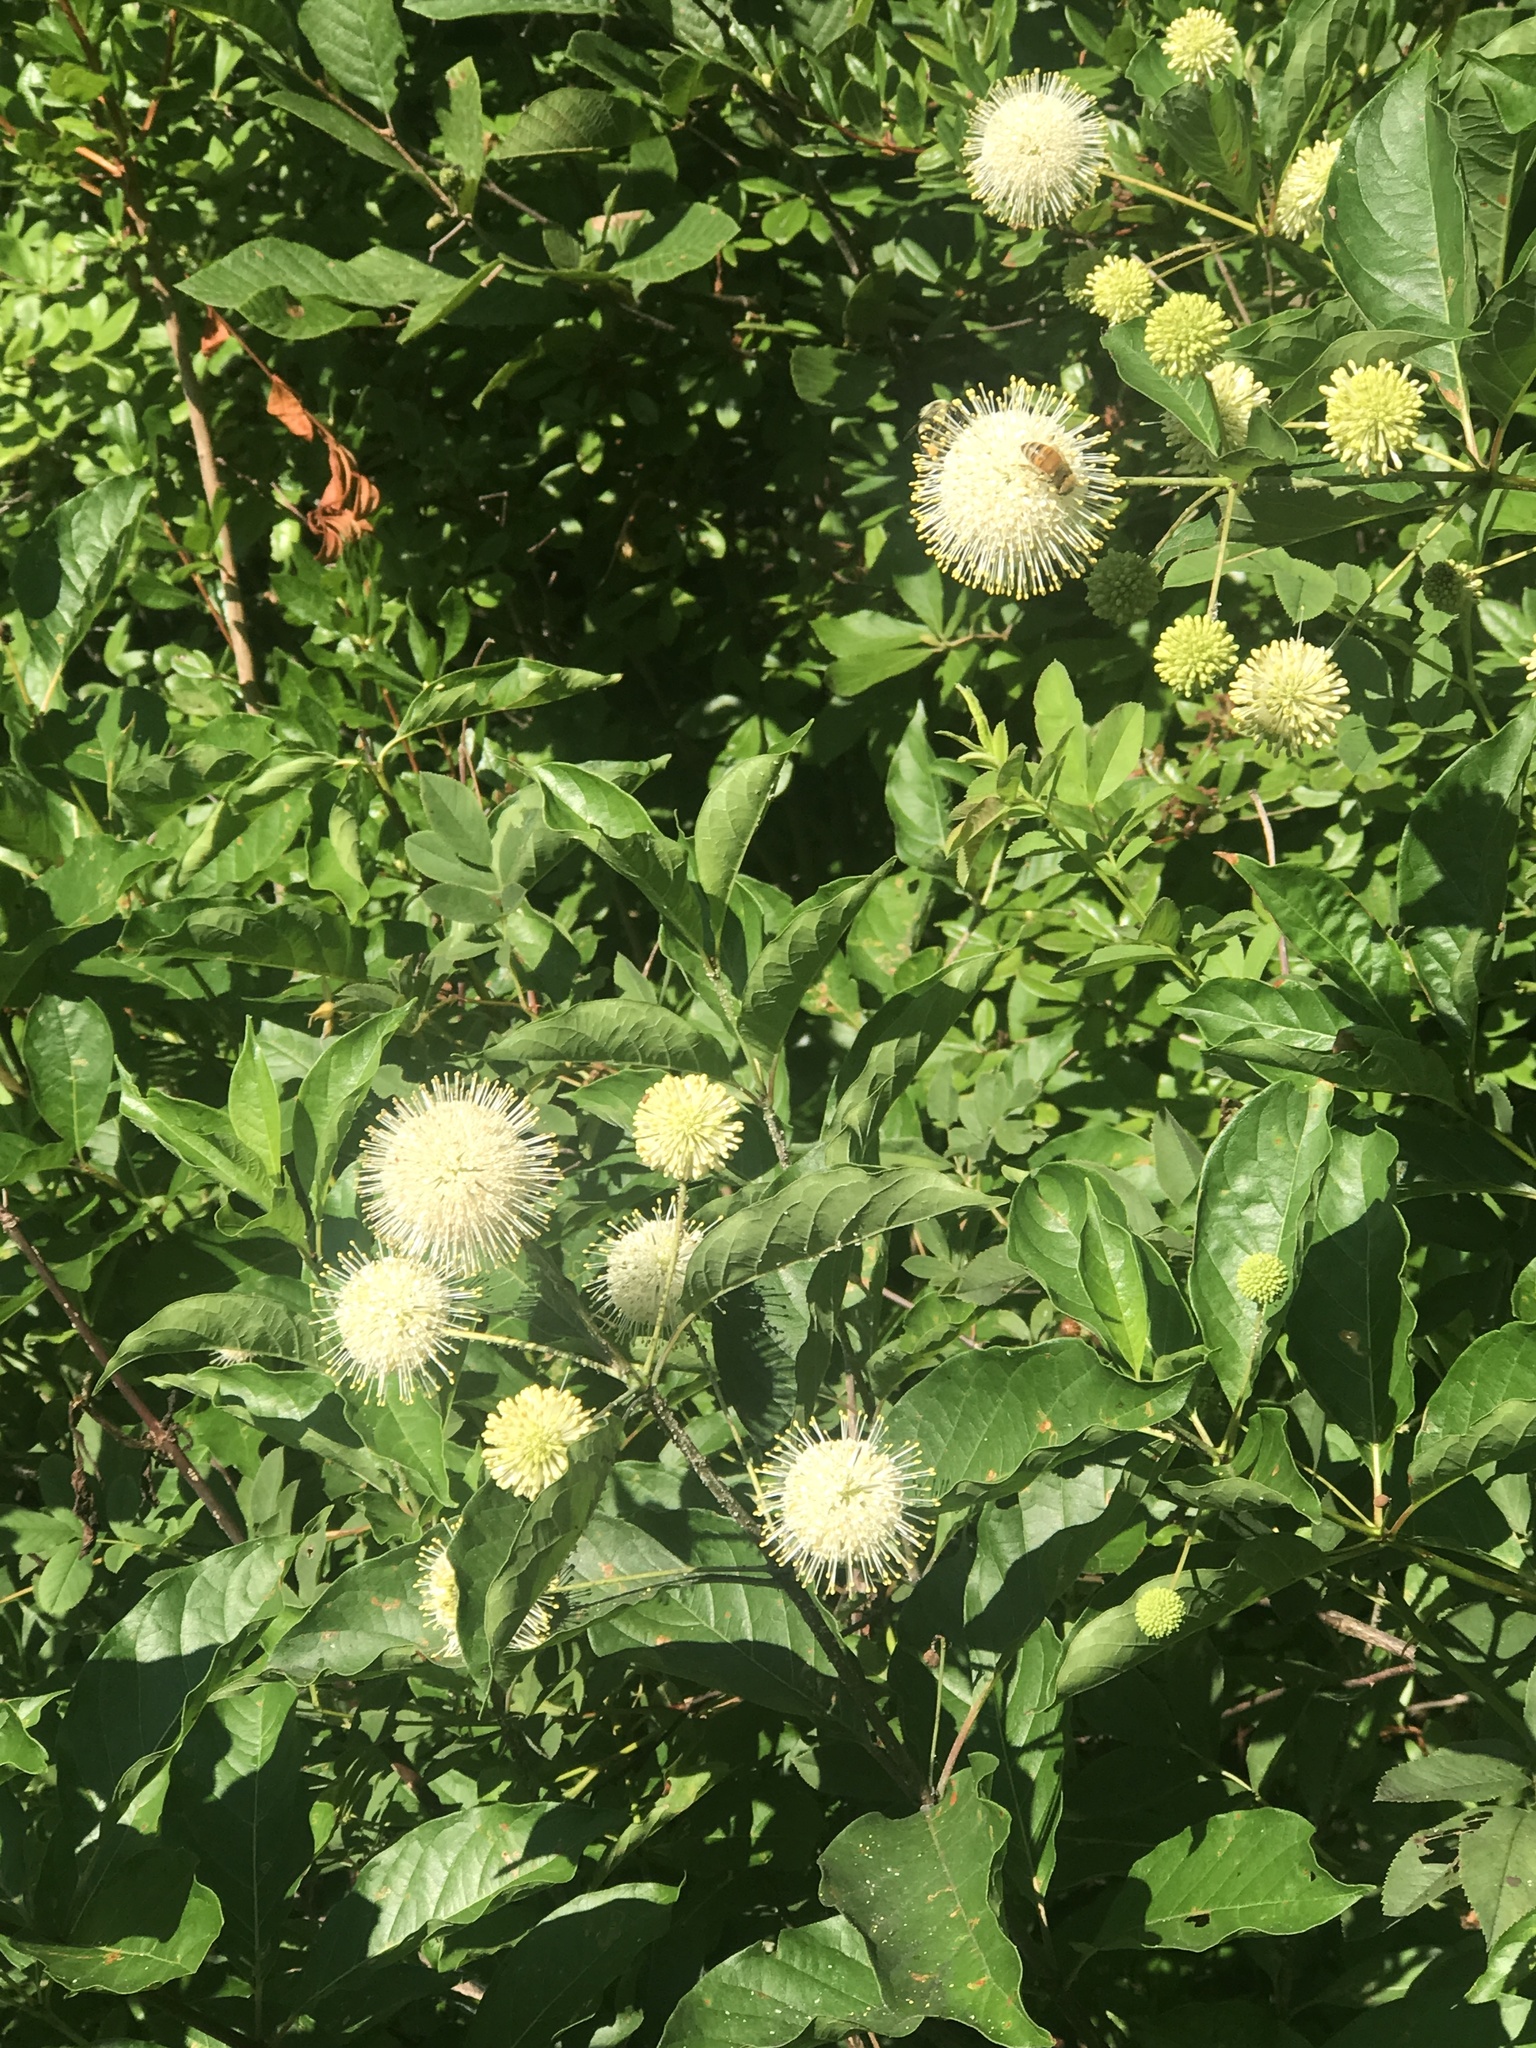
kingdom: Plantae
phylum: Tracheophyta
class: Magnoliopsida
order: Gentianales
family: Rubiaceae
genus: Cephalanthus
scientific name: Cephalanthus occidentalis
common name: Button-willow
